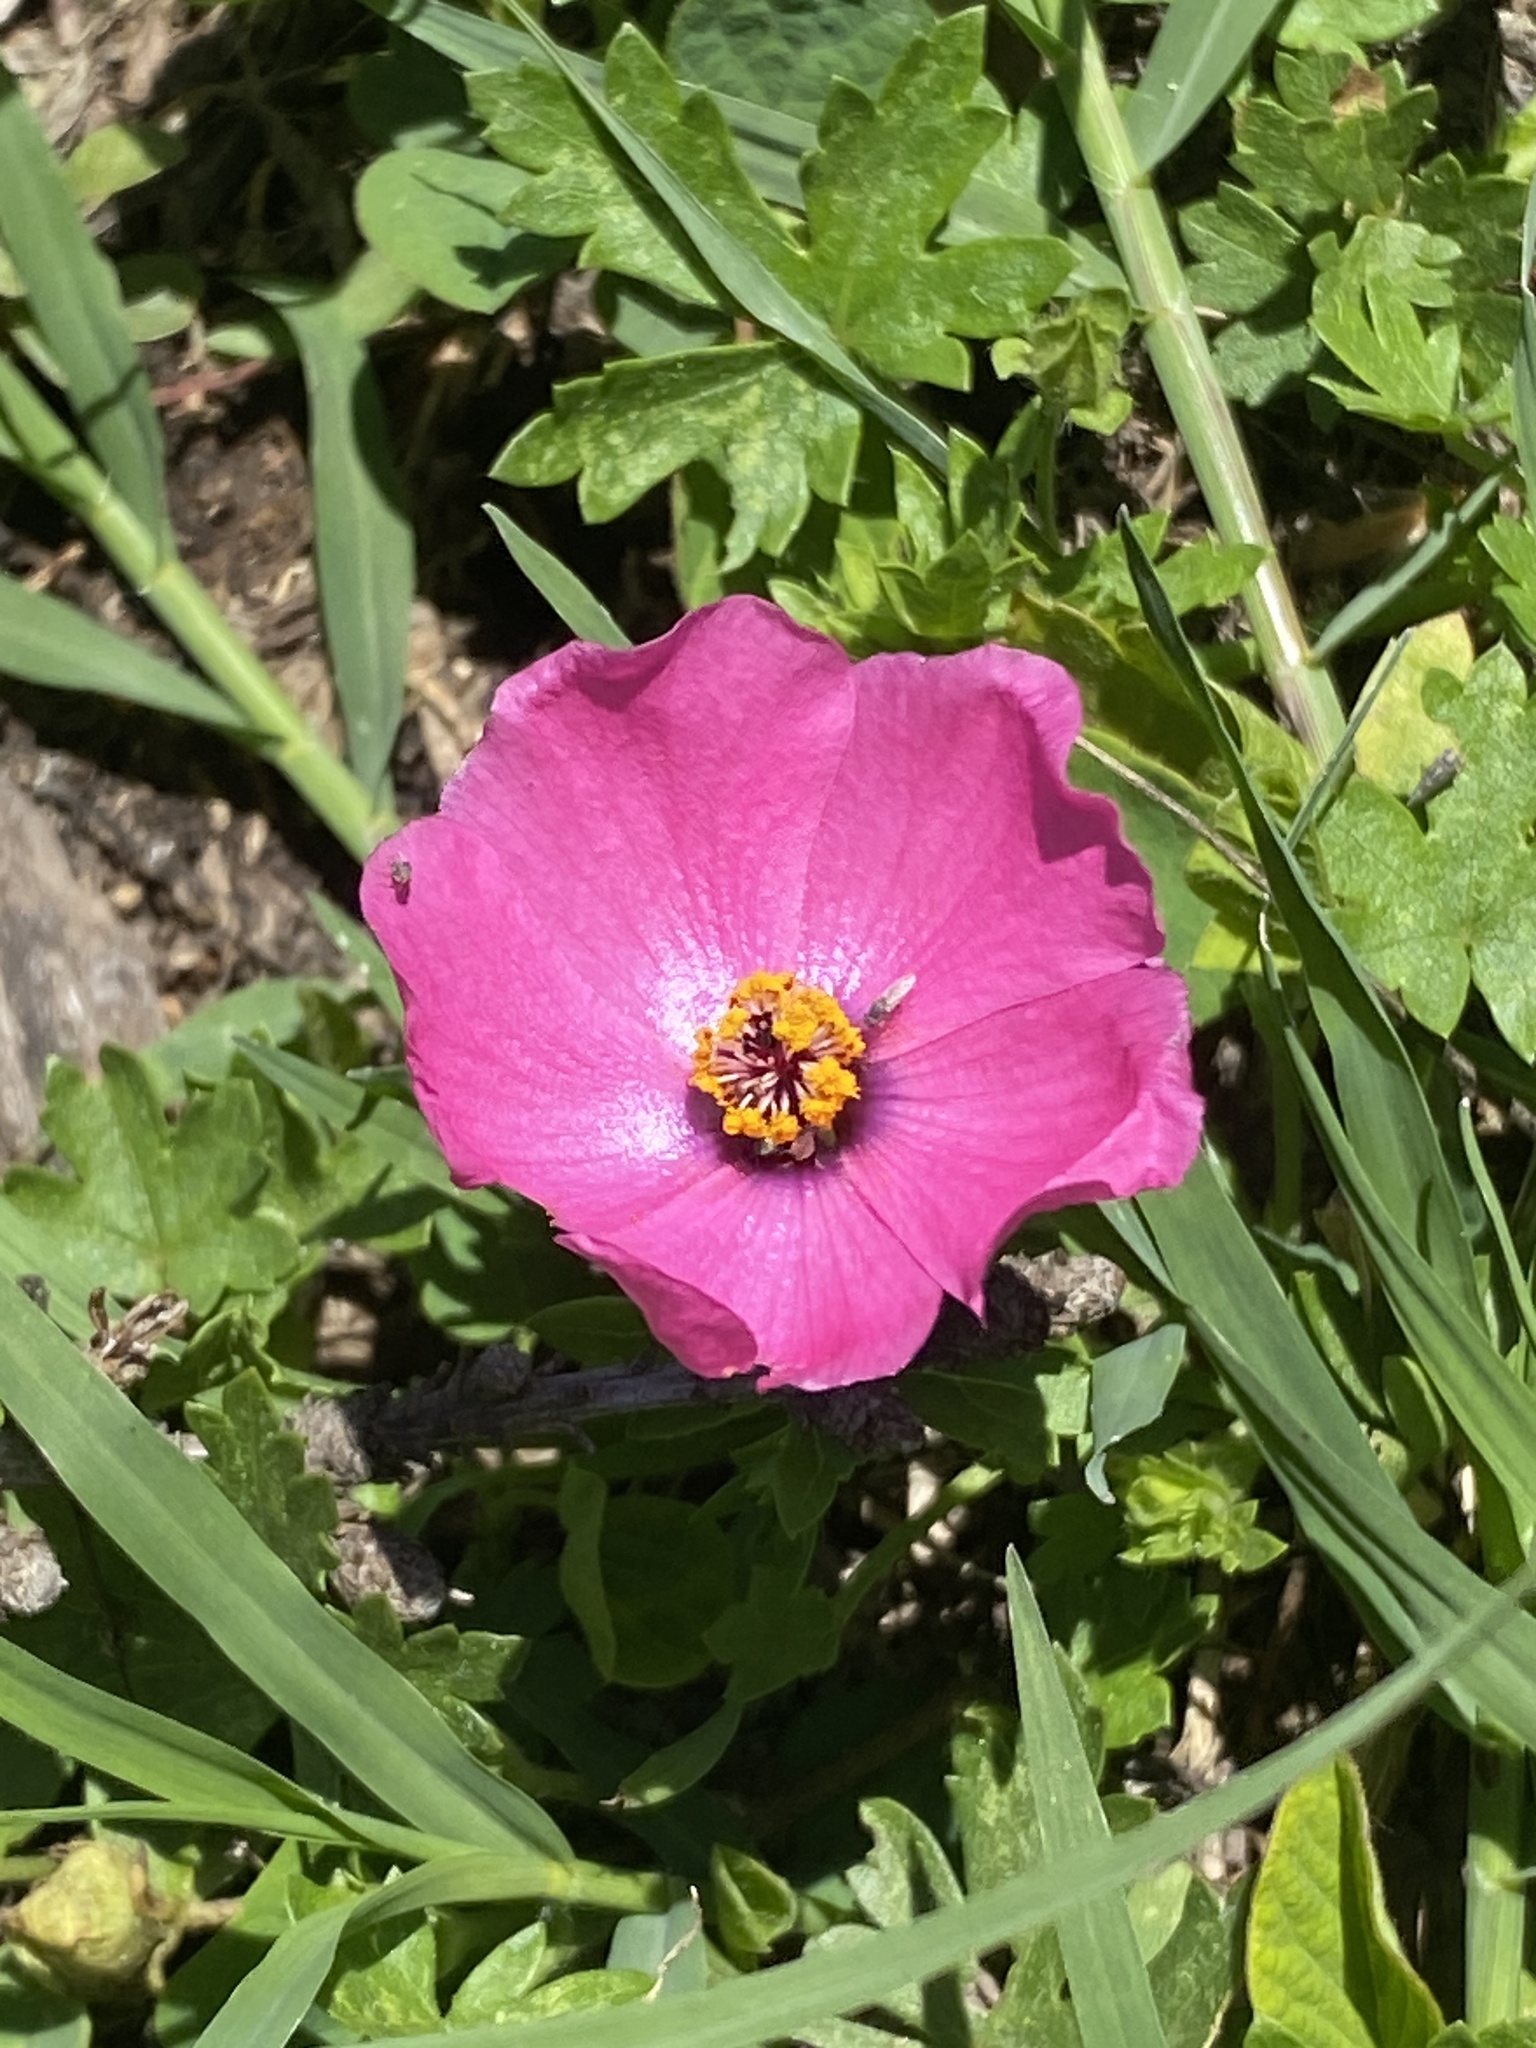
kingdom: Plantae
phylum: Tracheophyta
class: Magnoliopsida
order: Malvales
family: Malvaceae
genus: Modiolastrum
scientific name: Modiolastrum gilliesii
